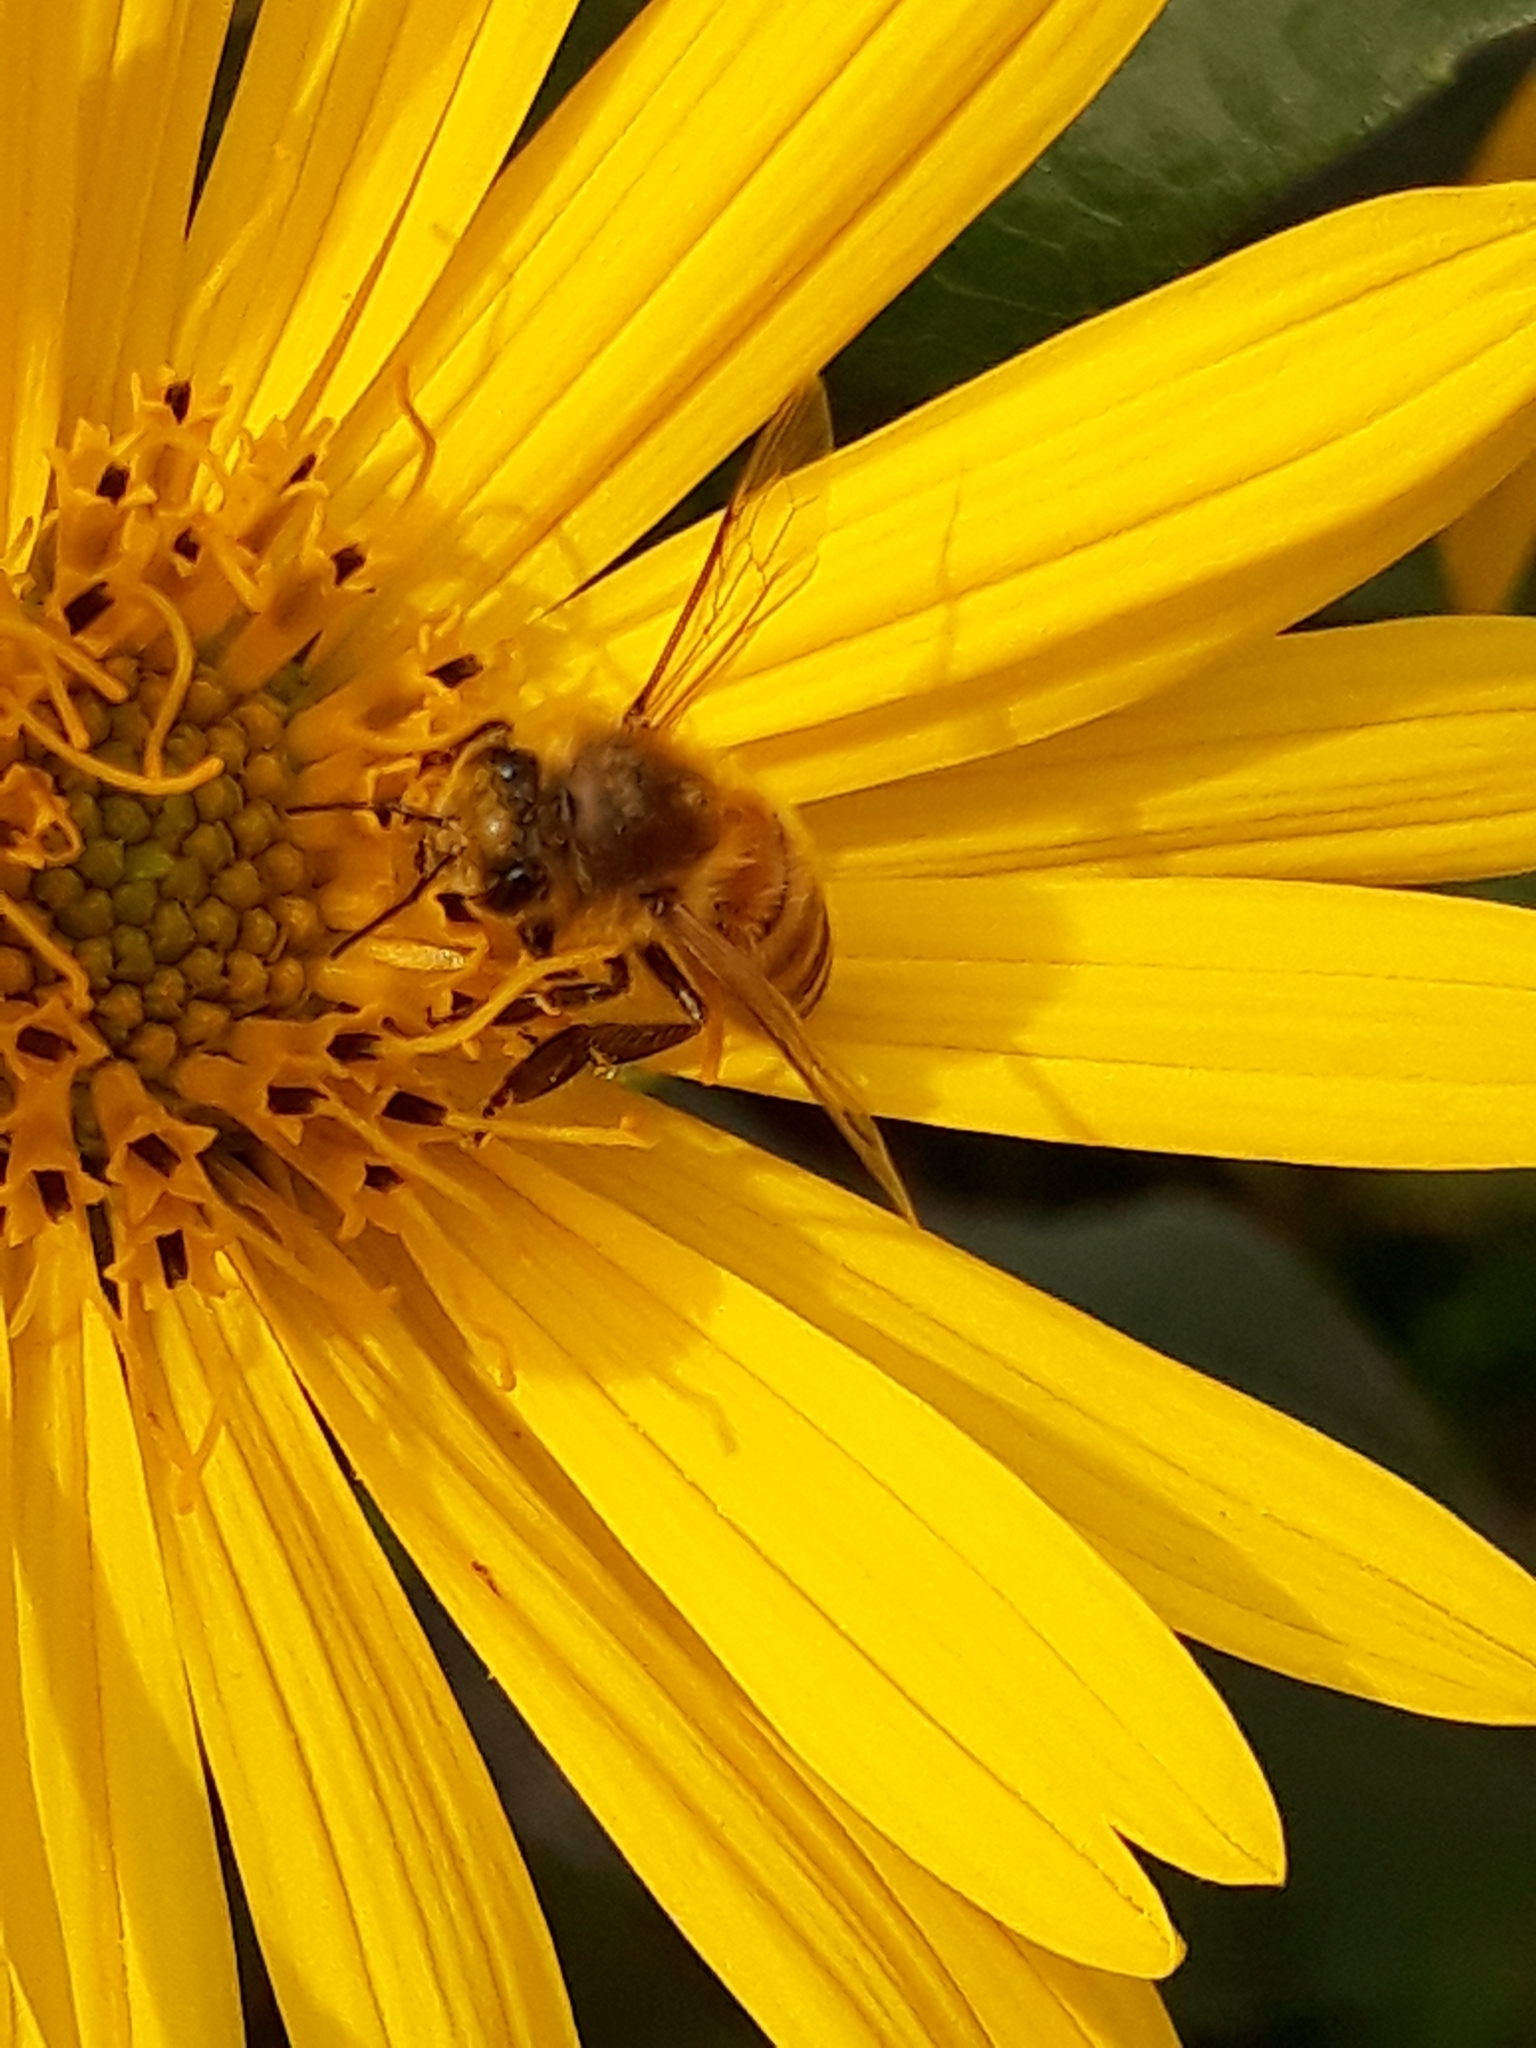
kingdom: Animalia
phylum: Arthropoda
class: Insecta
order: Hymenoptera
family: Apidae
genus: Apis
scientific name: Apis mellifera
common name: Honey bee
